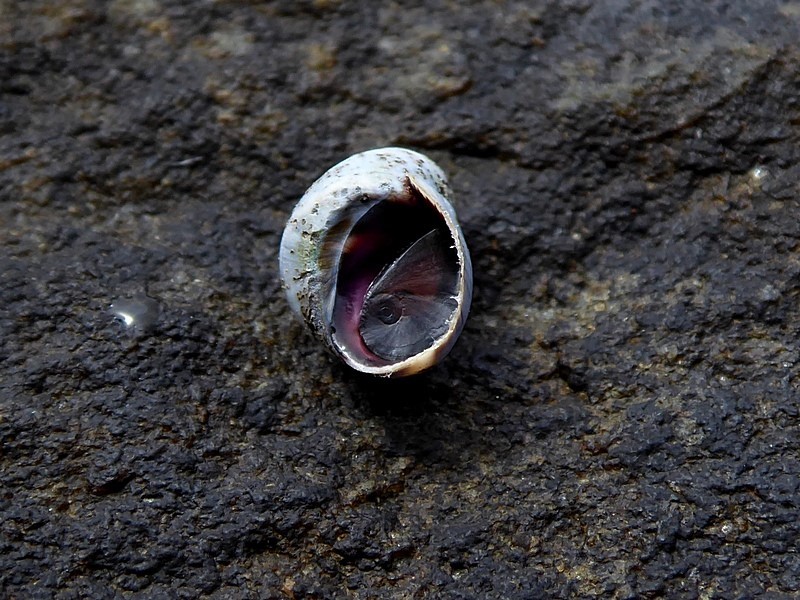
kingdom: Animalia
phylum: Mollusca
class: Gastropoda
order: Littorinimorpha
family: Littorinidae
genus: Austrolittorina
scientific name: Austrolittorina unifasciata
